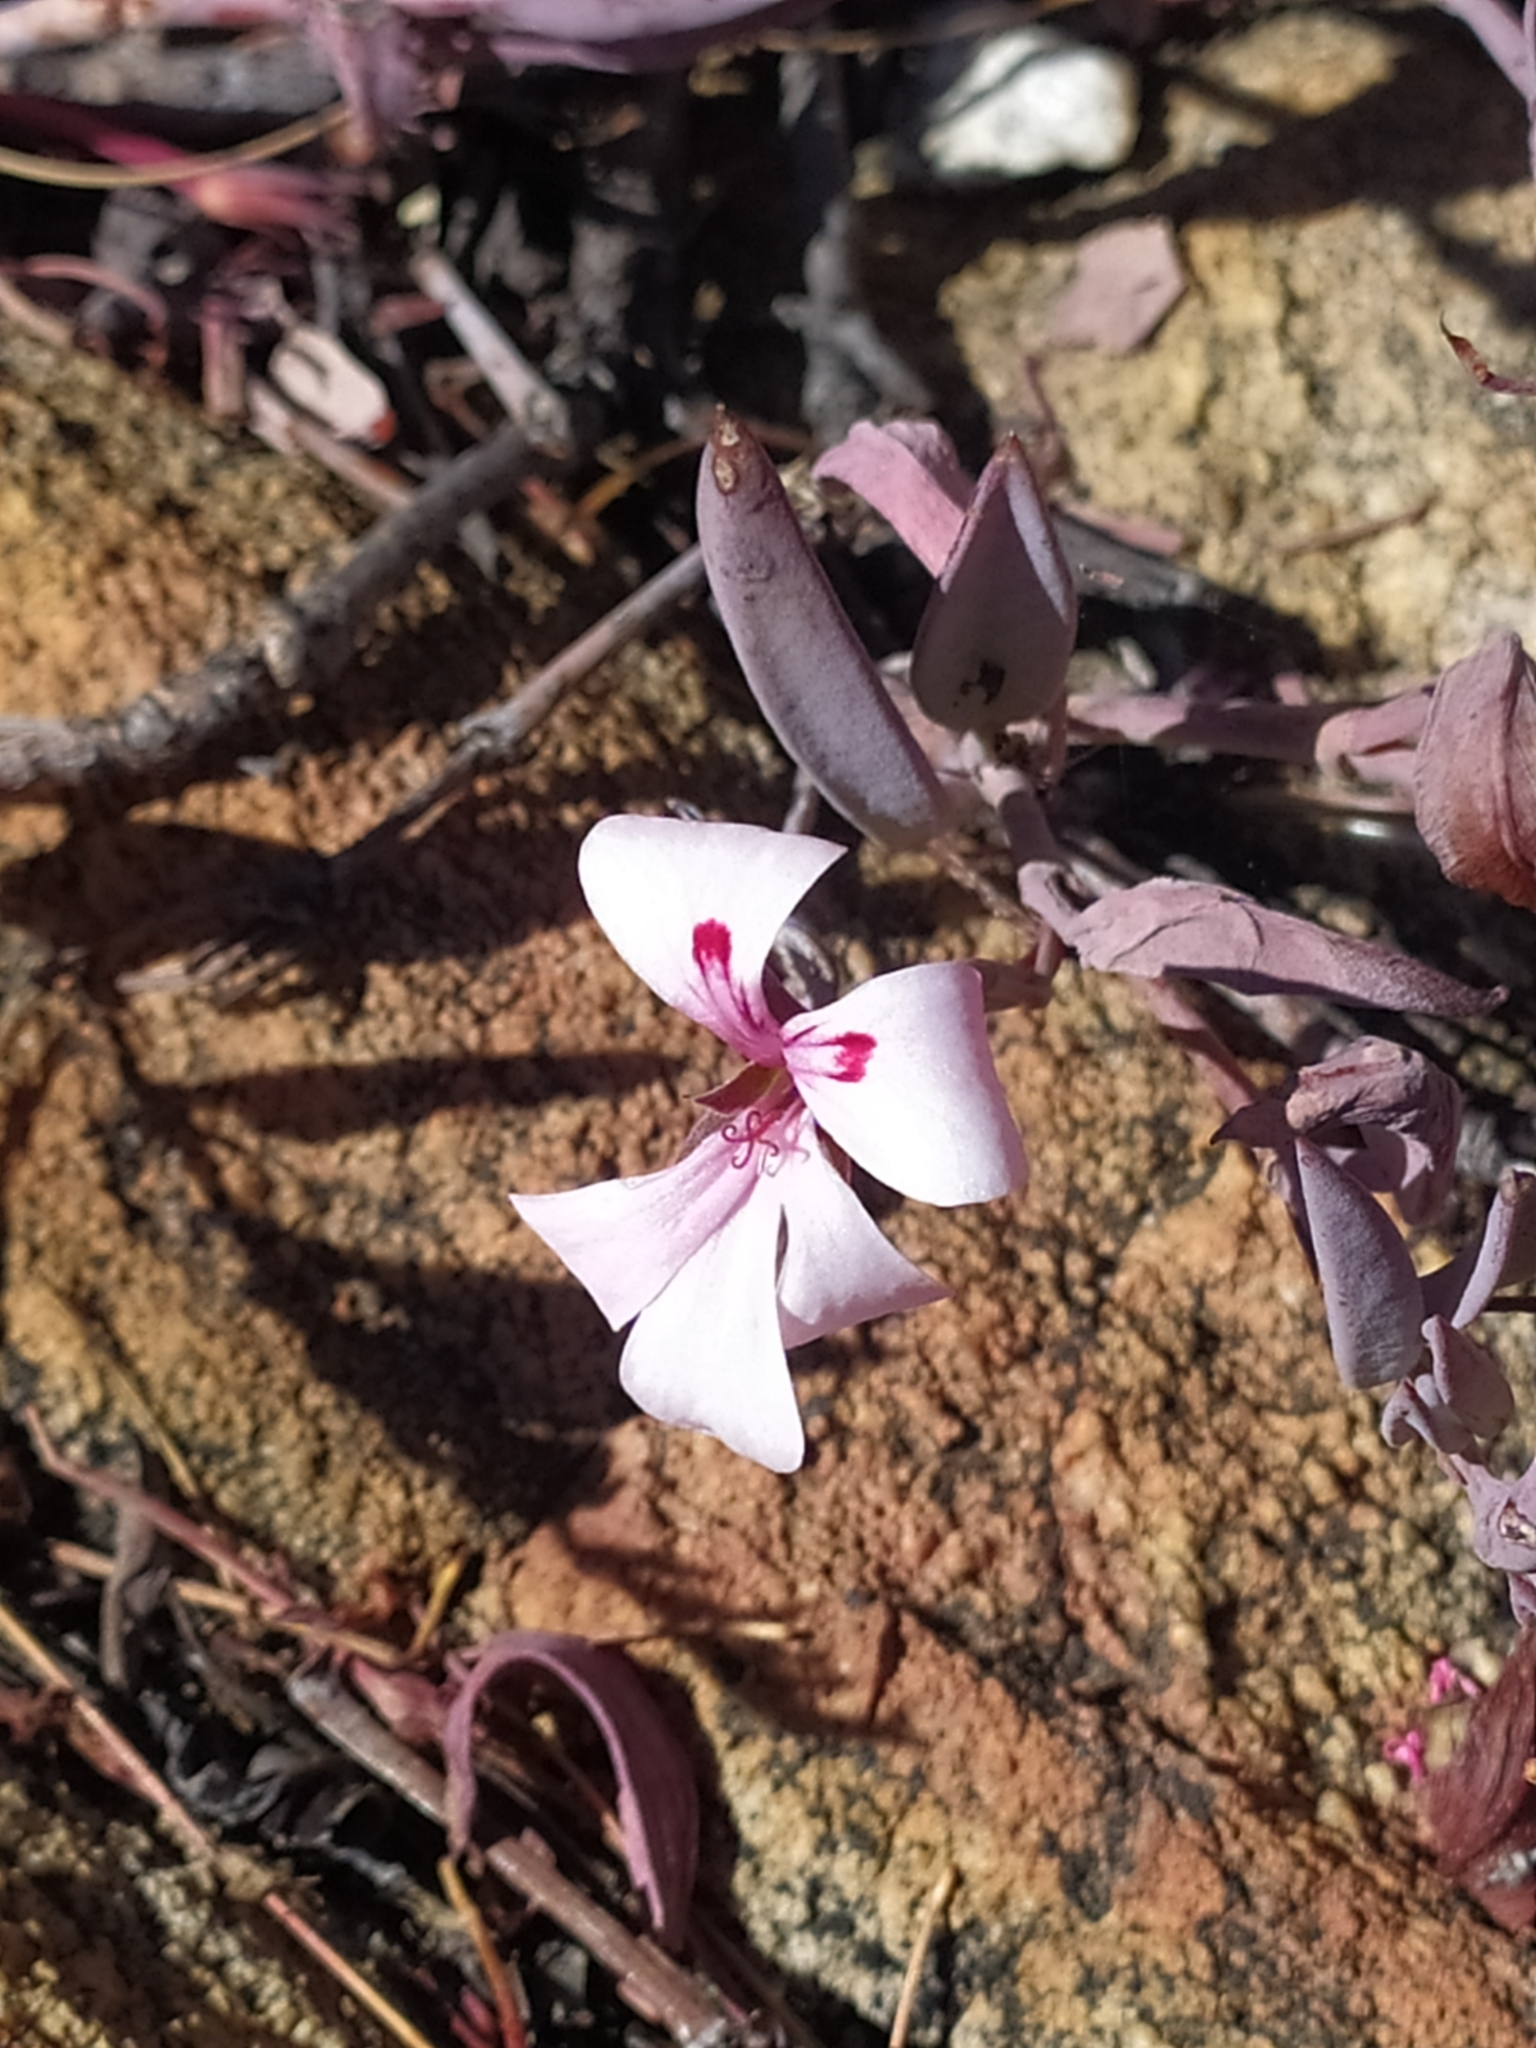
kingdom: Plantae
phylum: Tracheophyta
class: Magnoliopsida
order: Geraniales
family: Geraniaceae
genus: Pelargonium
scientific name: Pelargonium lanceolatum
